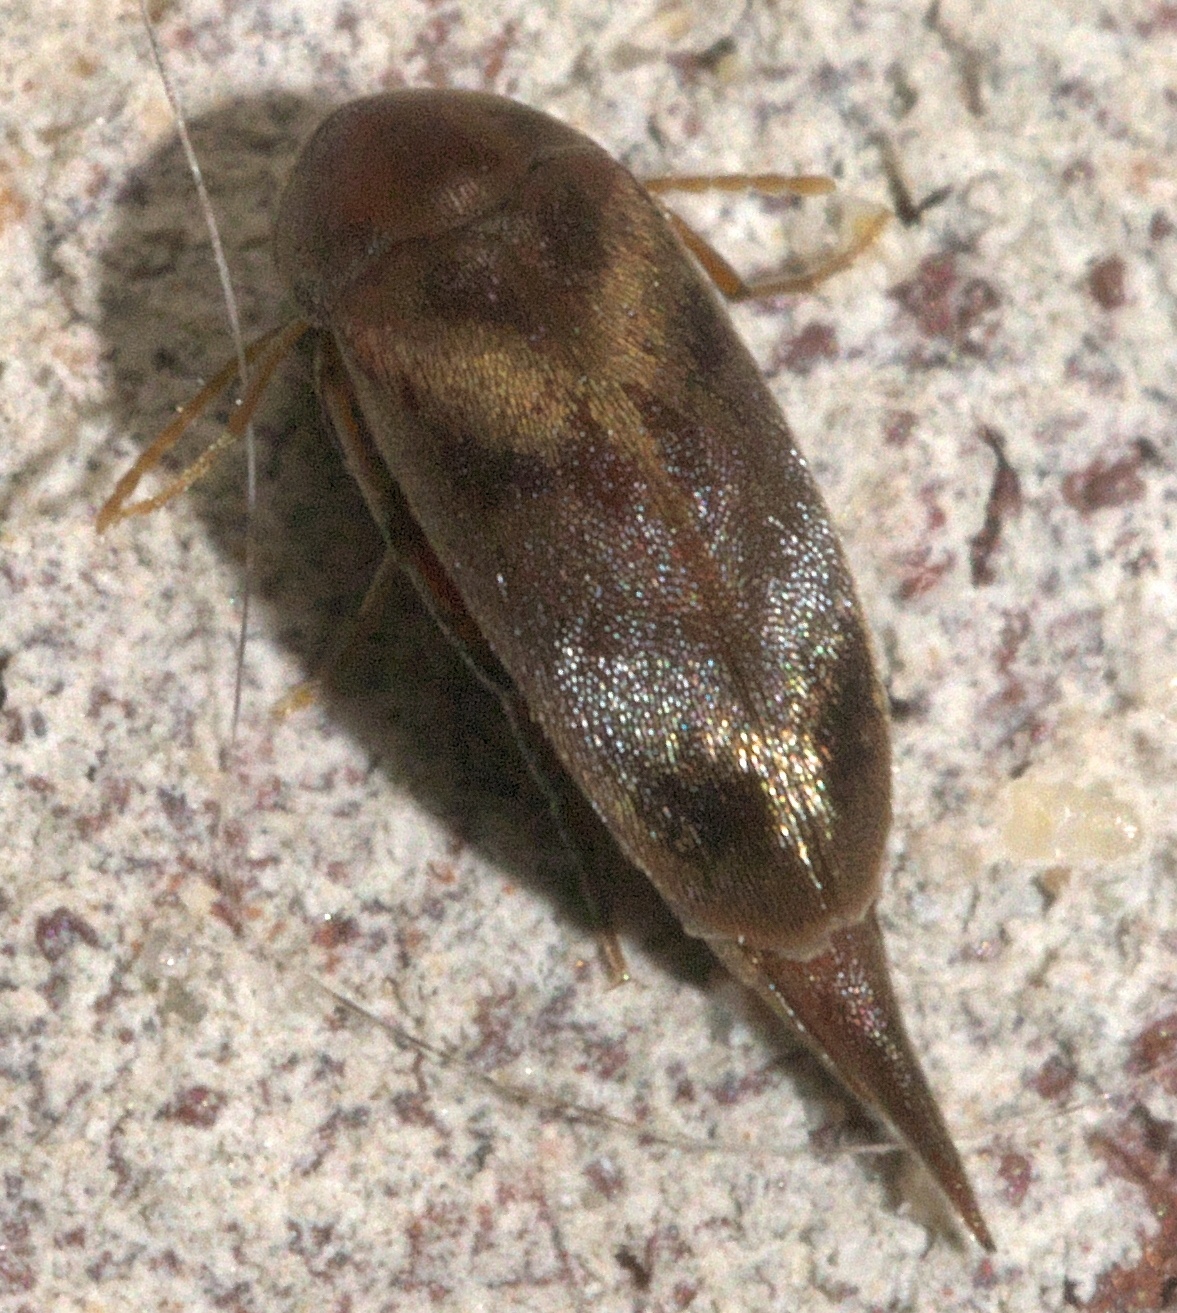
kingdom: Animalia
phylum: Arthropoda
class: Insecta
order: Coleoptera
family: Mordellidae
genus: Falsomordellistena
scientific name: Falsomordellistena liturata
